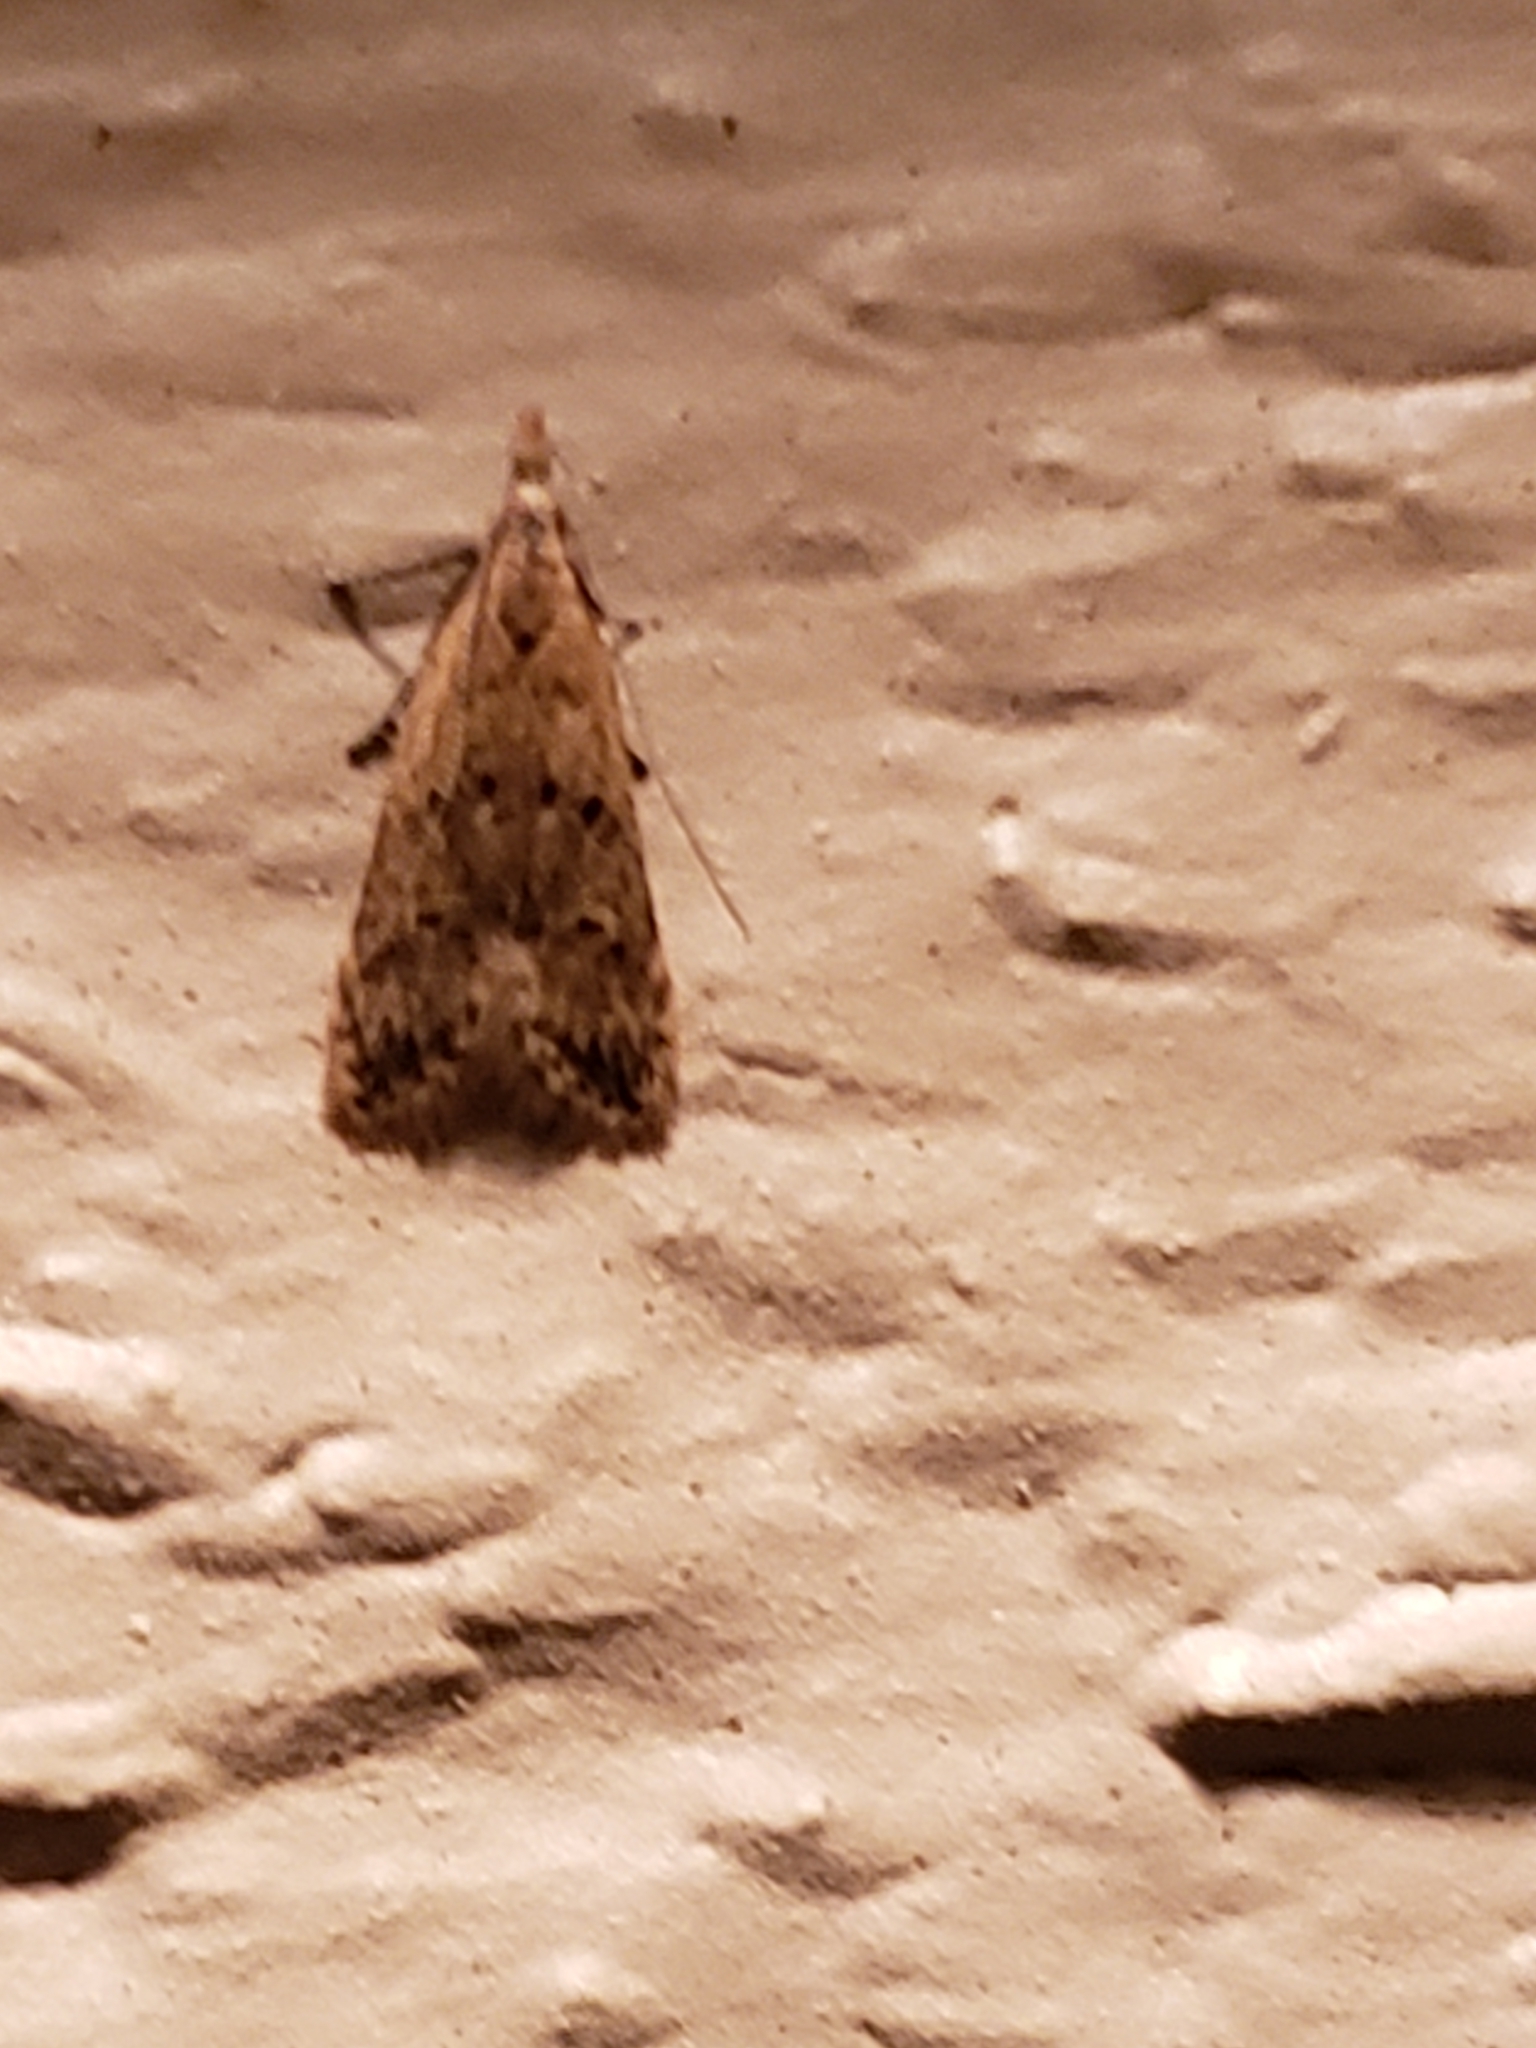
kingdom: Animalia
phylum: Arthropoda
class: Insecta
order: Lepidoptera
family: Gelechiidae
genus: Dichomeris
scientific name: Dichomeris punctipennella
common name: Many-spotted dichomeris moth
